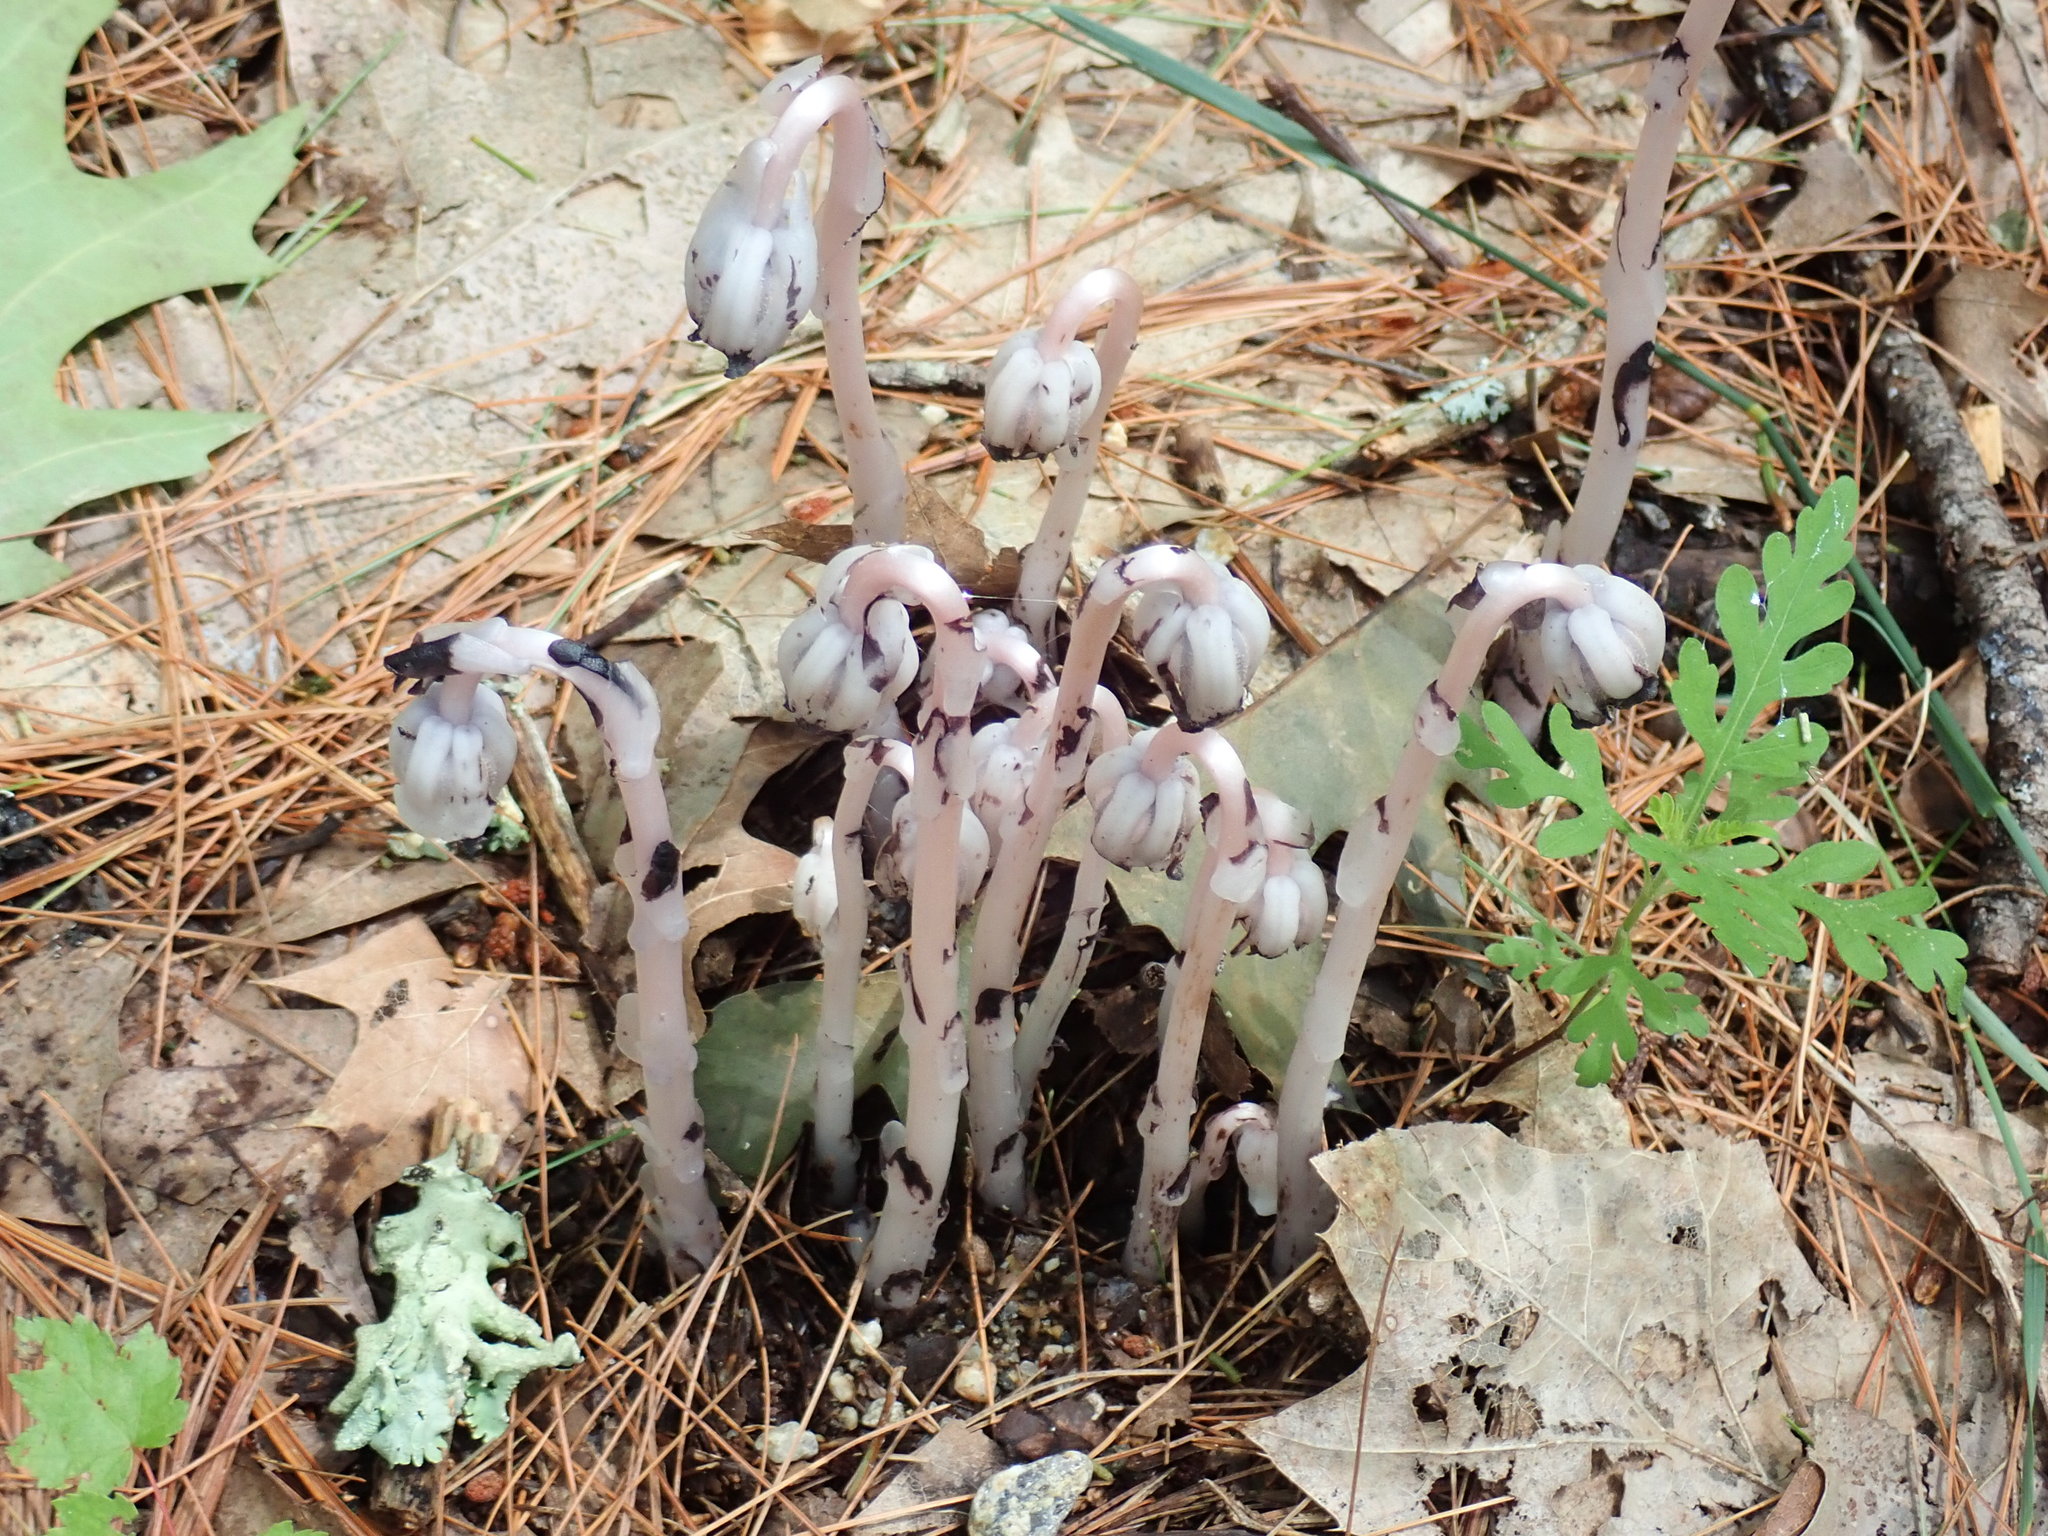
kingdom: Plantae
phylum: Tracheophyta
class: Magnoliopsida
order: Ericales
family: Ericaceae
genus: Monotropa
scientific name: Monotropa uniflora
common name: Convulsion root
